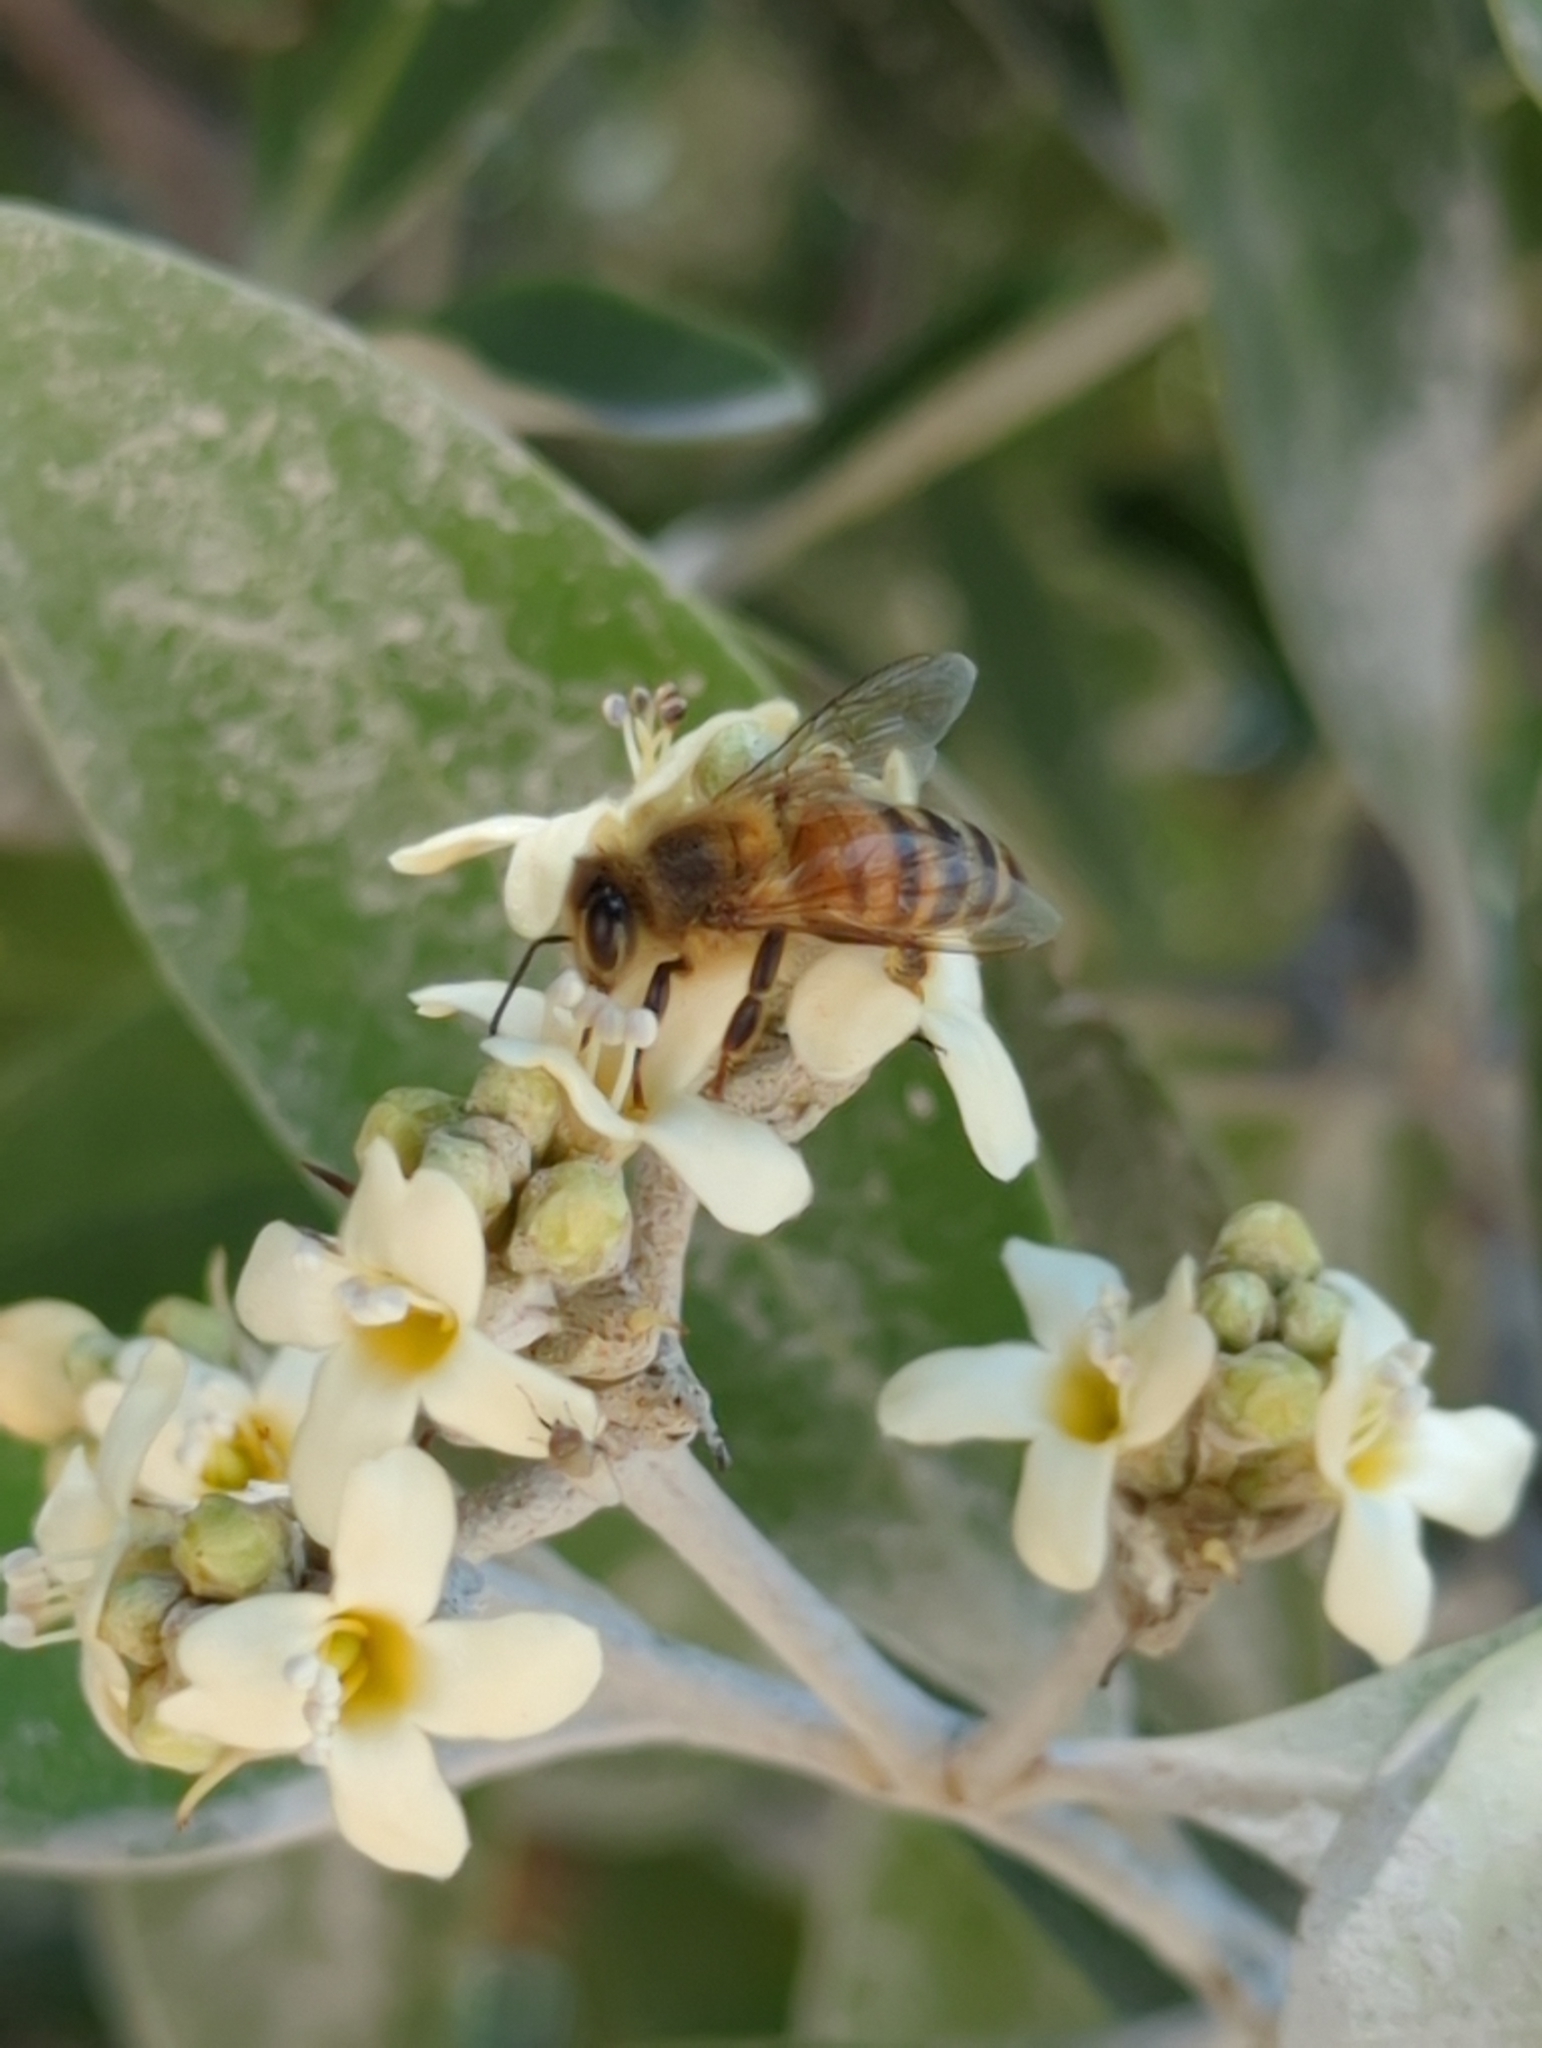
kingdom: Animalia
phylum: Arthropoda
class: Insecta
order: Hymenoptera
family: Apidae
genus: Apis
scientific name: Apis mellifera
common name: Honey bee
